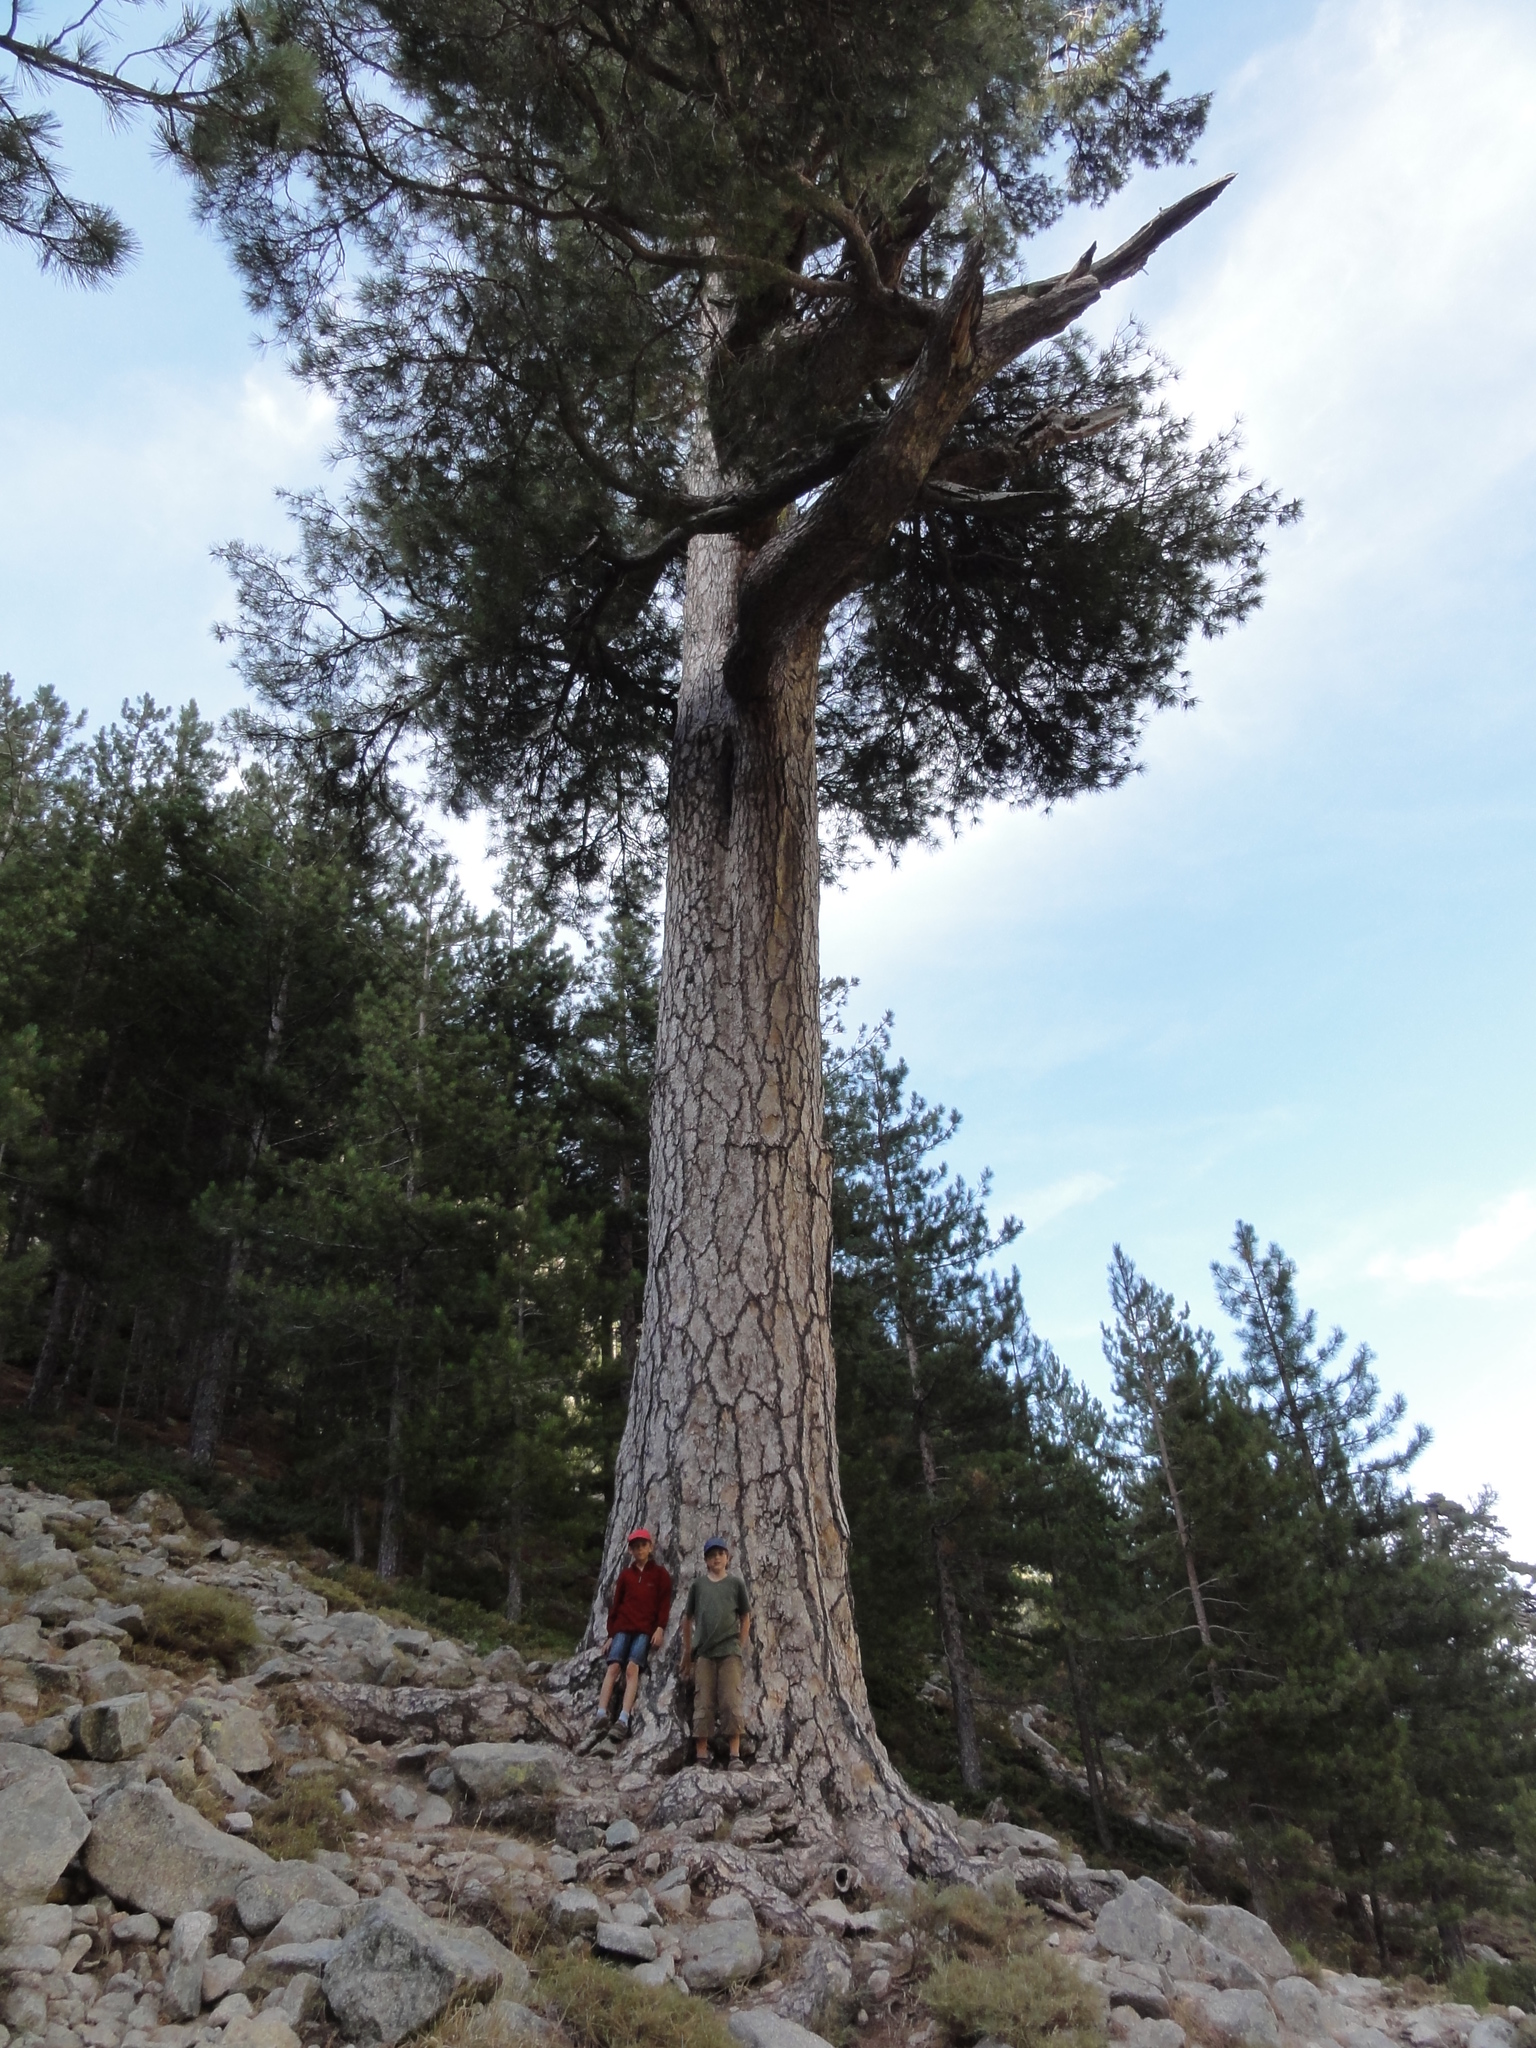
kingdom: Plantae
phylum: Tracheophyta
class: Pinopsida
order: Pinales
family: Pinaceae
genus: Pinus
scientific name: Pinus nigra
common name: Austrian pine
